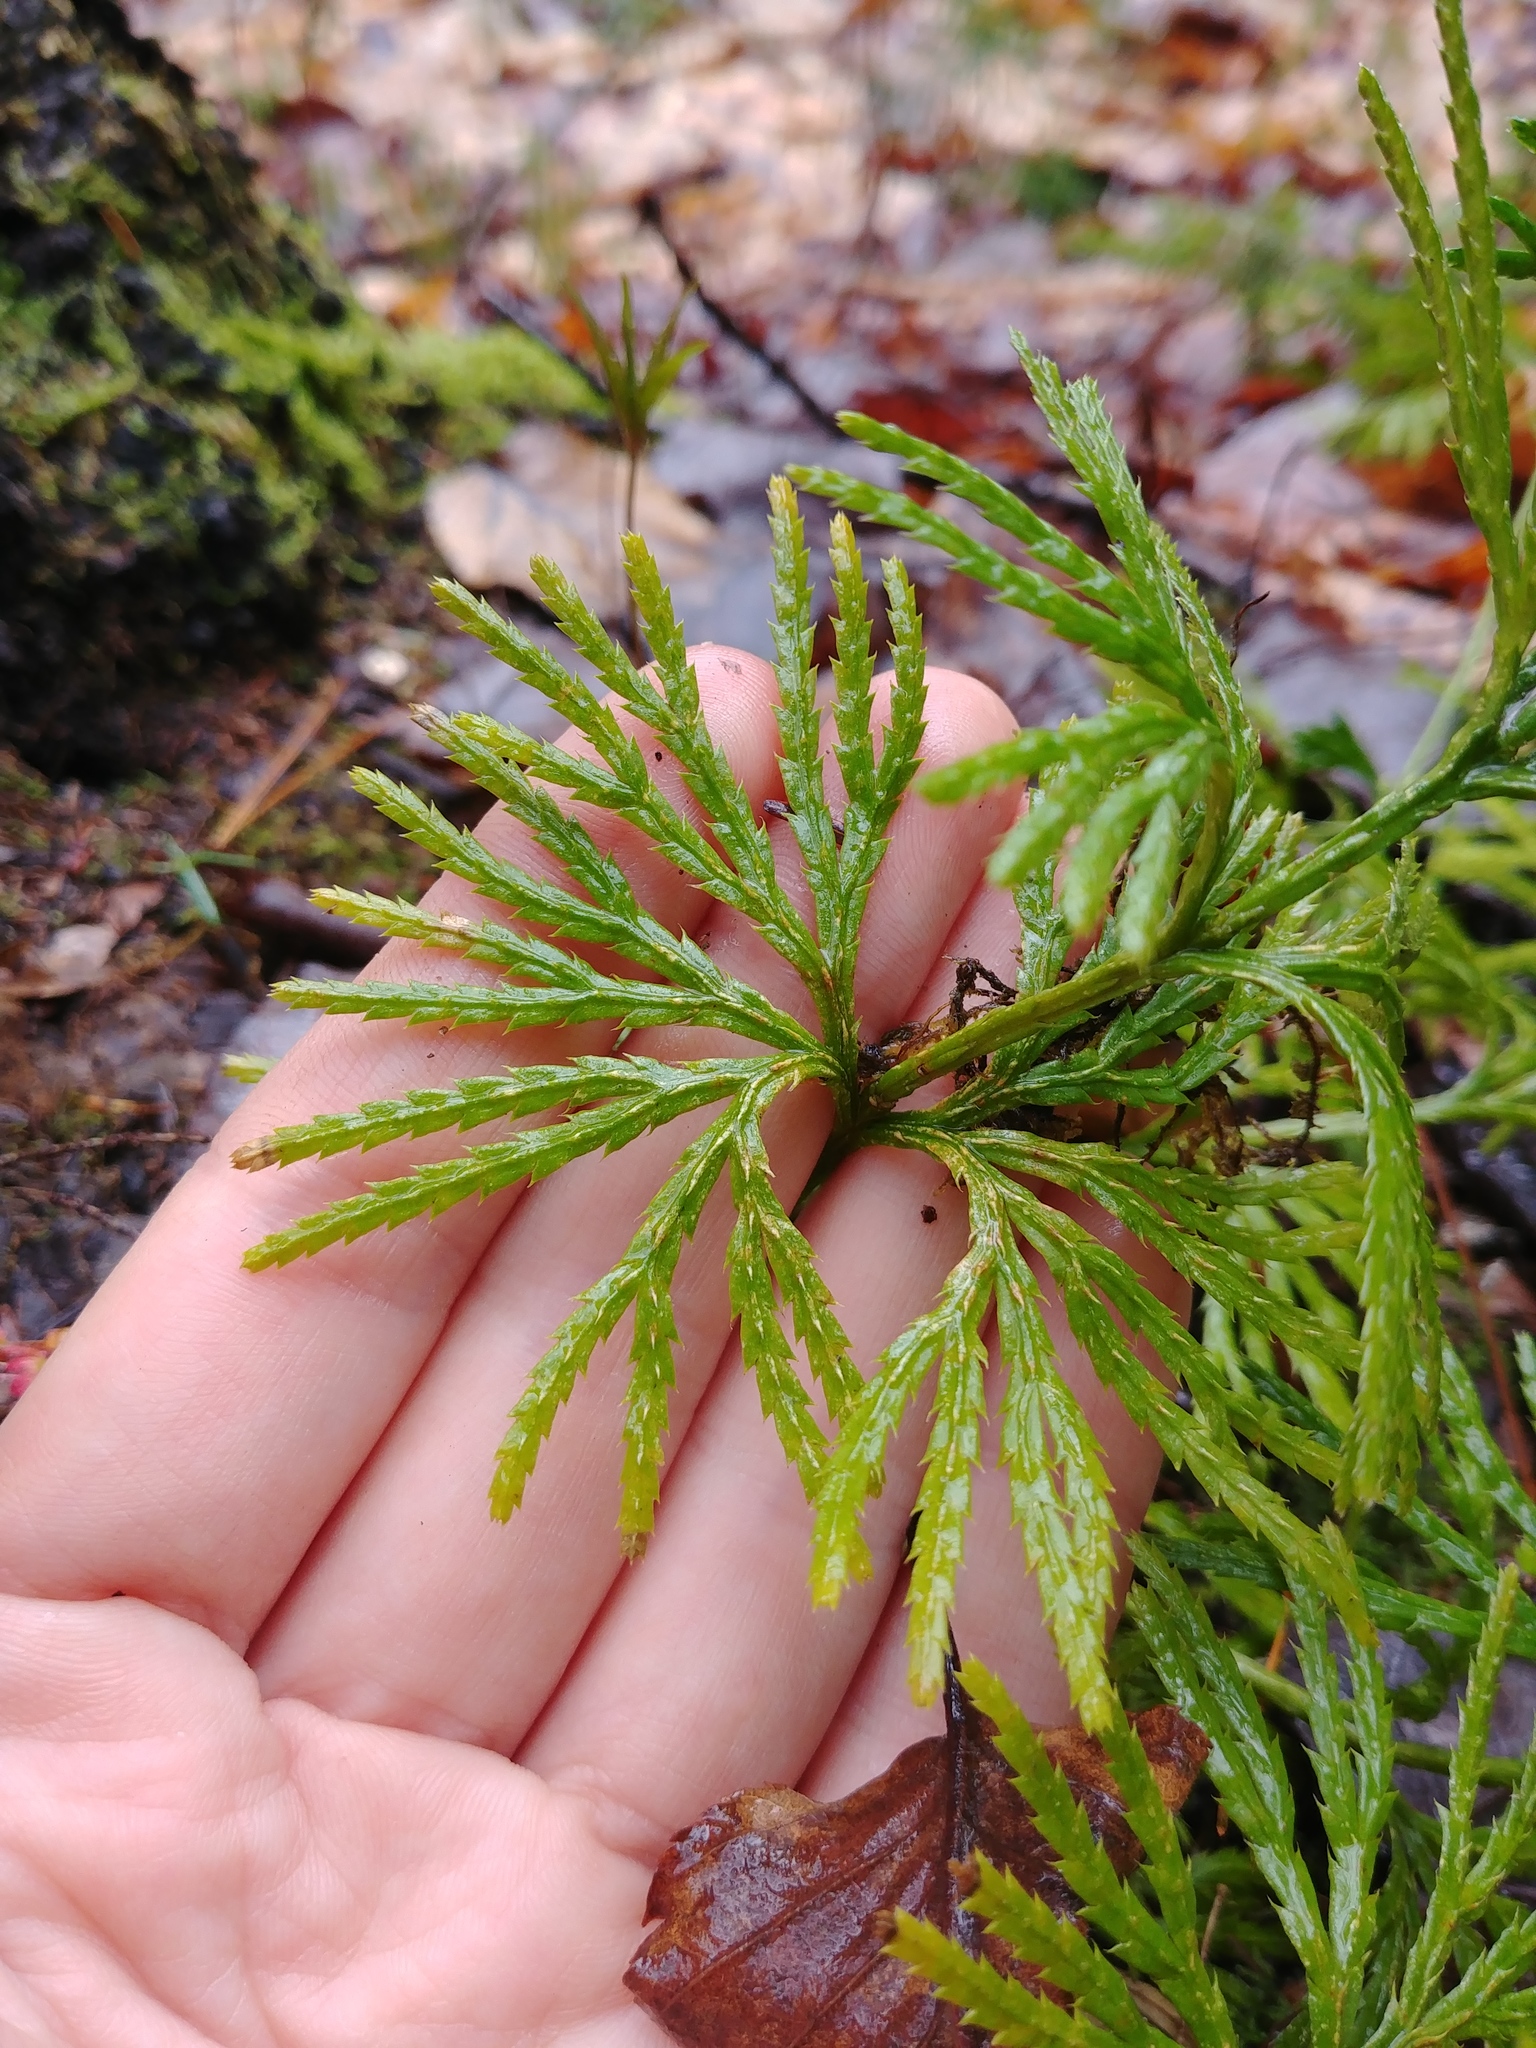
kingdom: Plantae
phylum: Tracheophyta
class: Lycopodiopsida
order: Lycopodiales
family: Lycopodiaceae
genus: Diphasiastrum
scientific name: Diphasiastrum digitatum
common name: Southern running-pine
